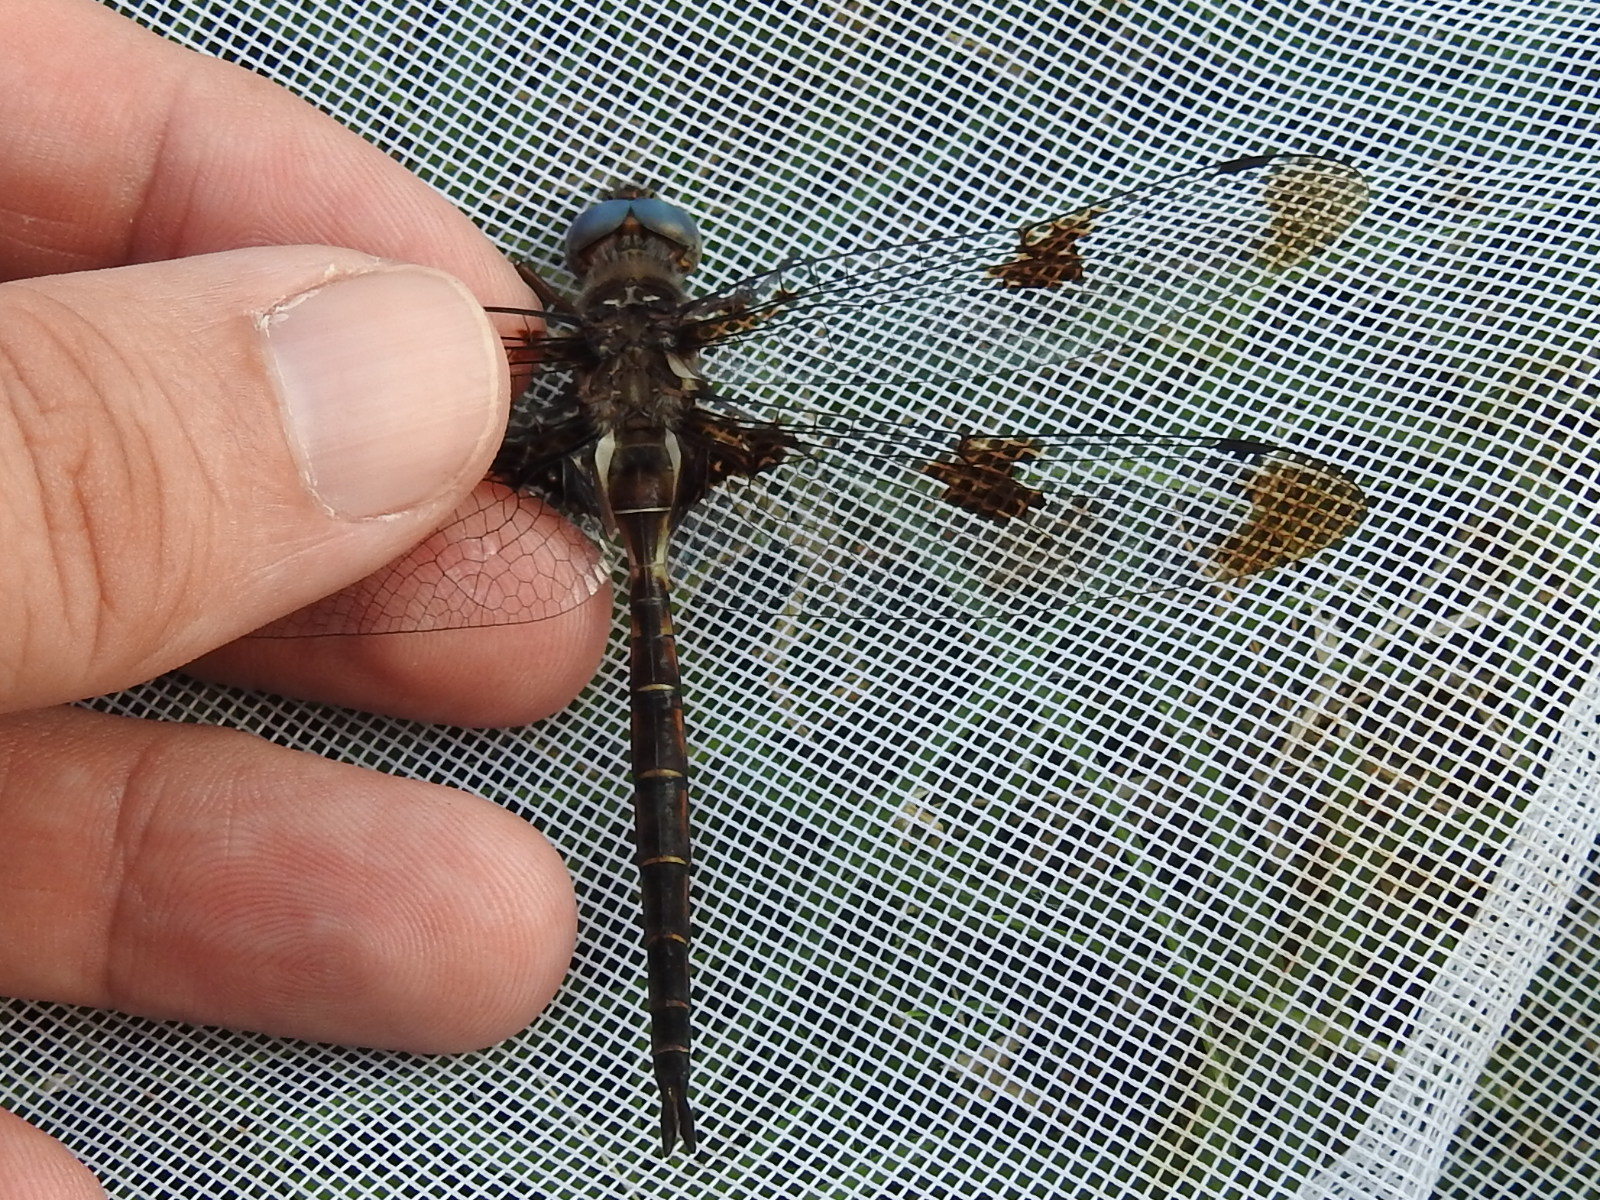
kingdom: Animalia
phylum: Arthropoda
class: Insecta
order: Odonata
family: Corduliidae
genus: Epitheca
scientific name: Epitheca princeps
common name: Prince baskettail
